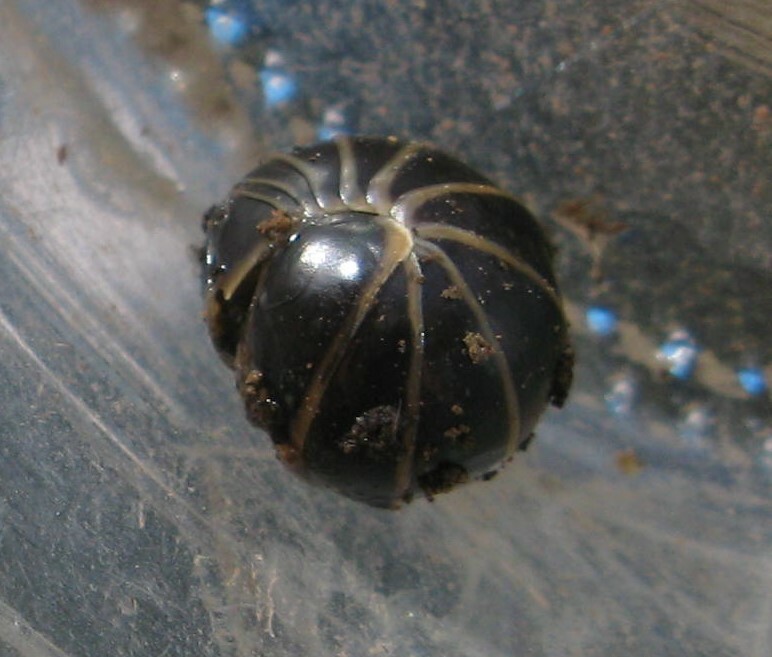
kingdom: Animalia
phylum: Arthropoda
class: Diplopoda
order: Glomerida
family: Glomeridae
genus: Glomeris
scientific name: Glomeris marginata
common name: Bordered pill millipede
